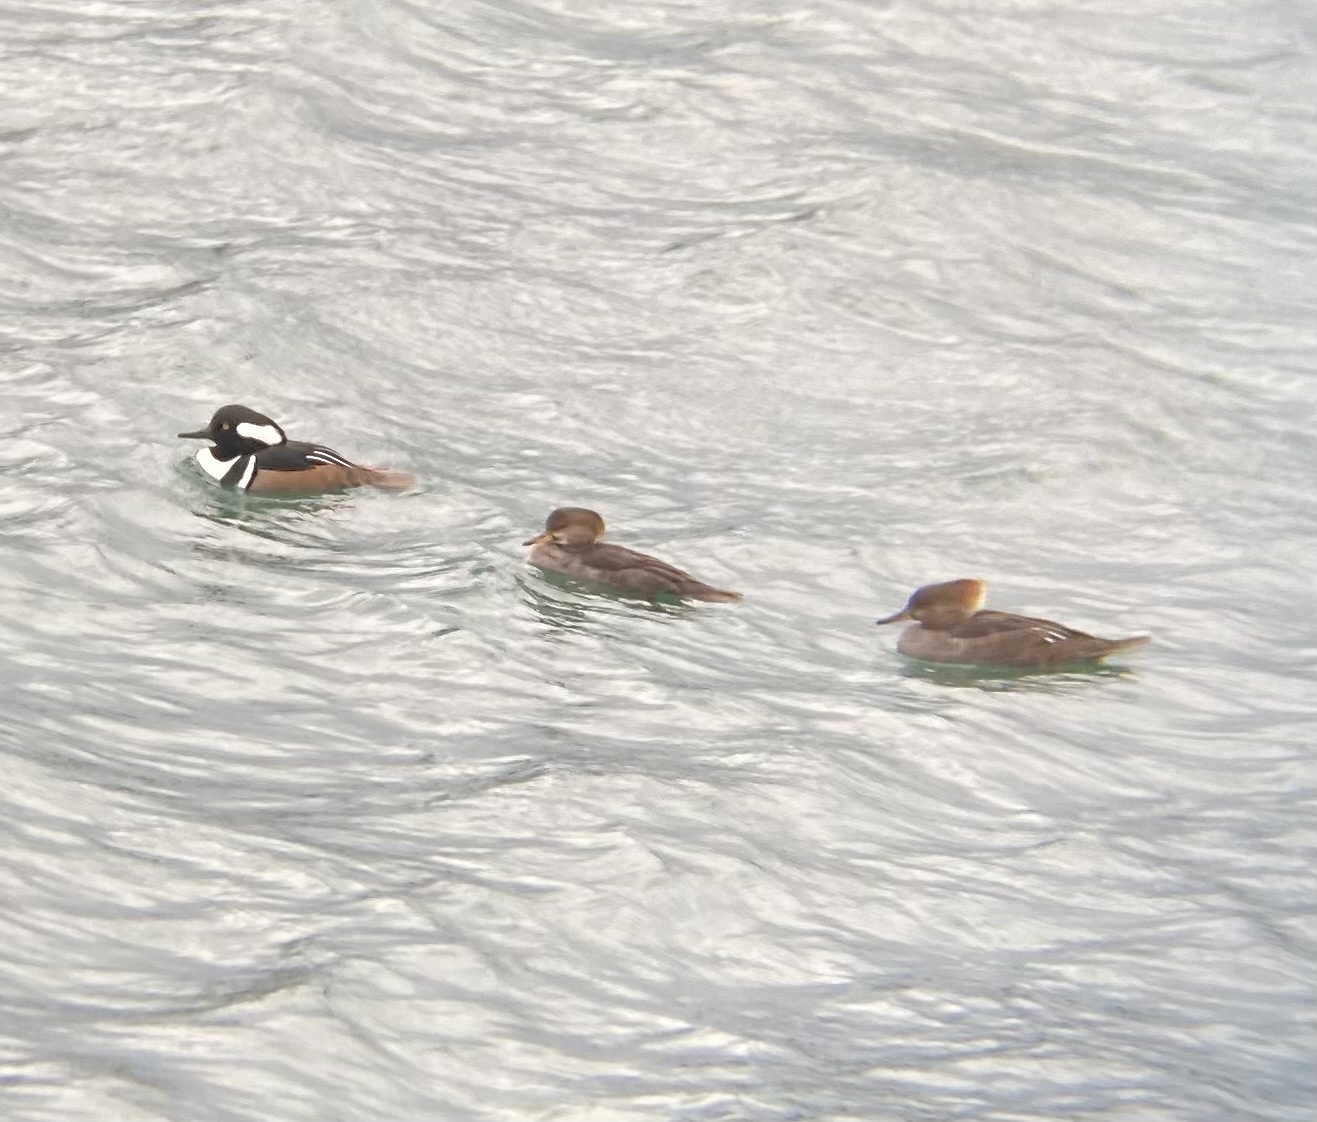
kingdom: Animalia
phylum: Chordata
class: Aves
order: Anseriformes
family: Anatidae
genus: Lophodytes
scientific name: Lophodytes cucullatus
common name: Hooded merganser
